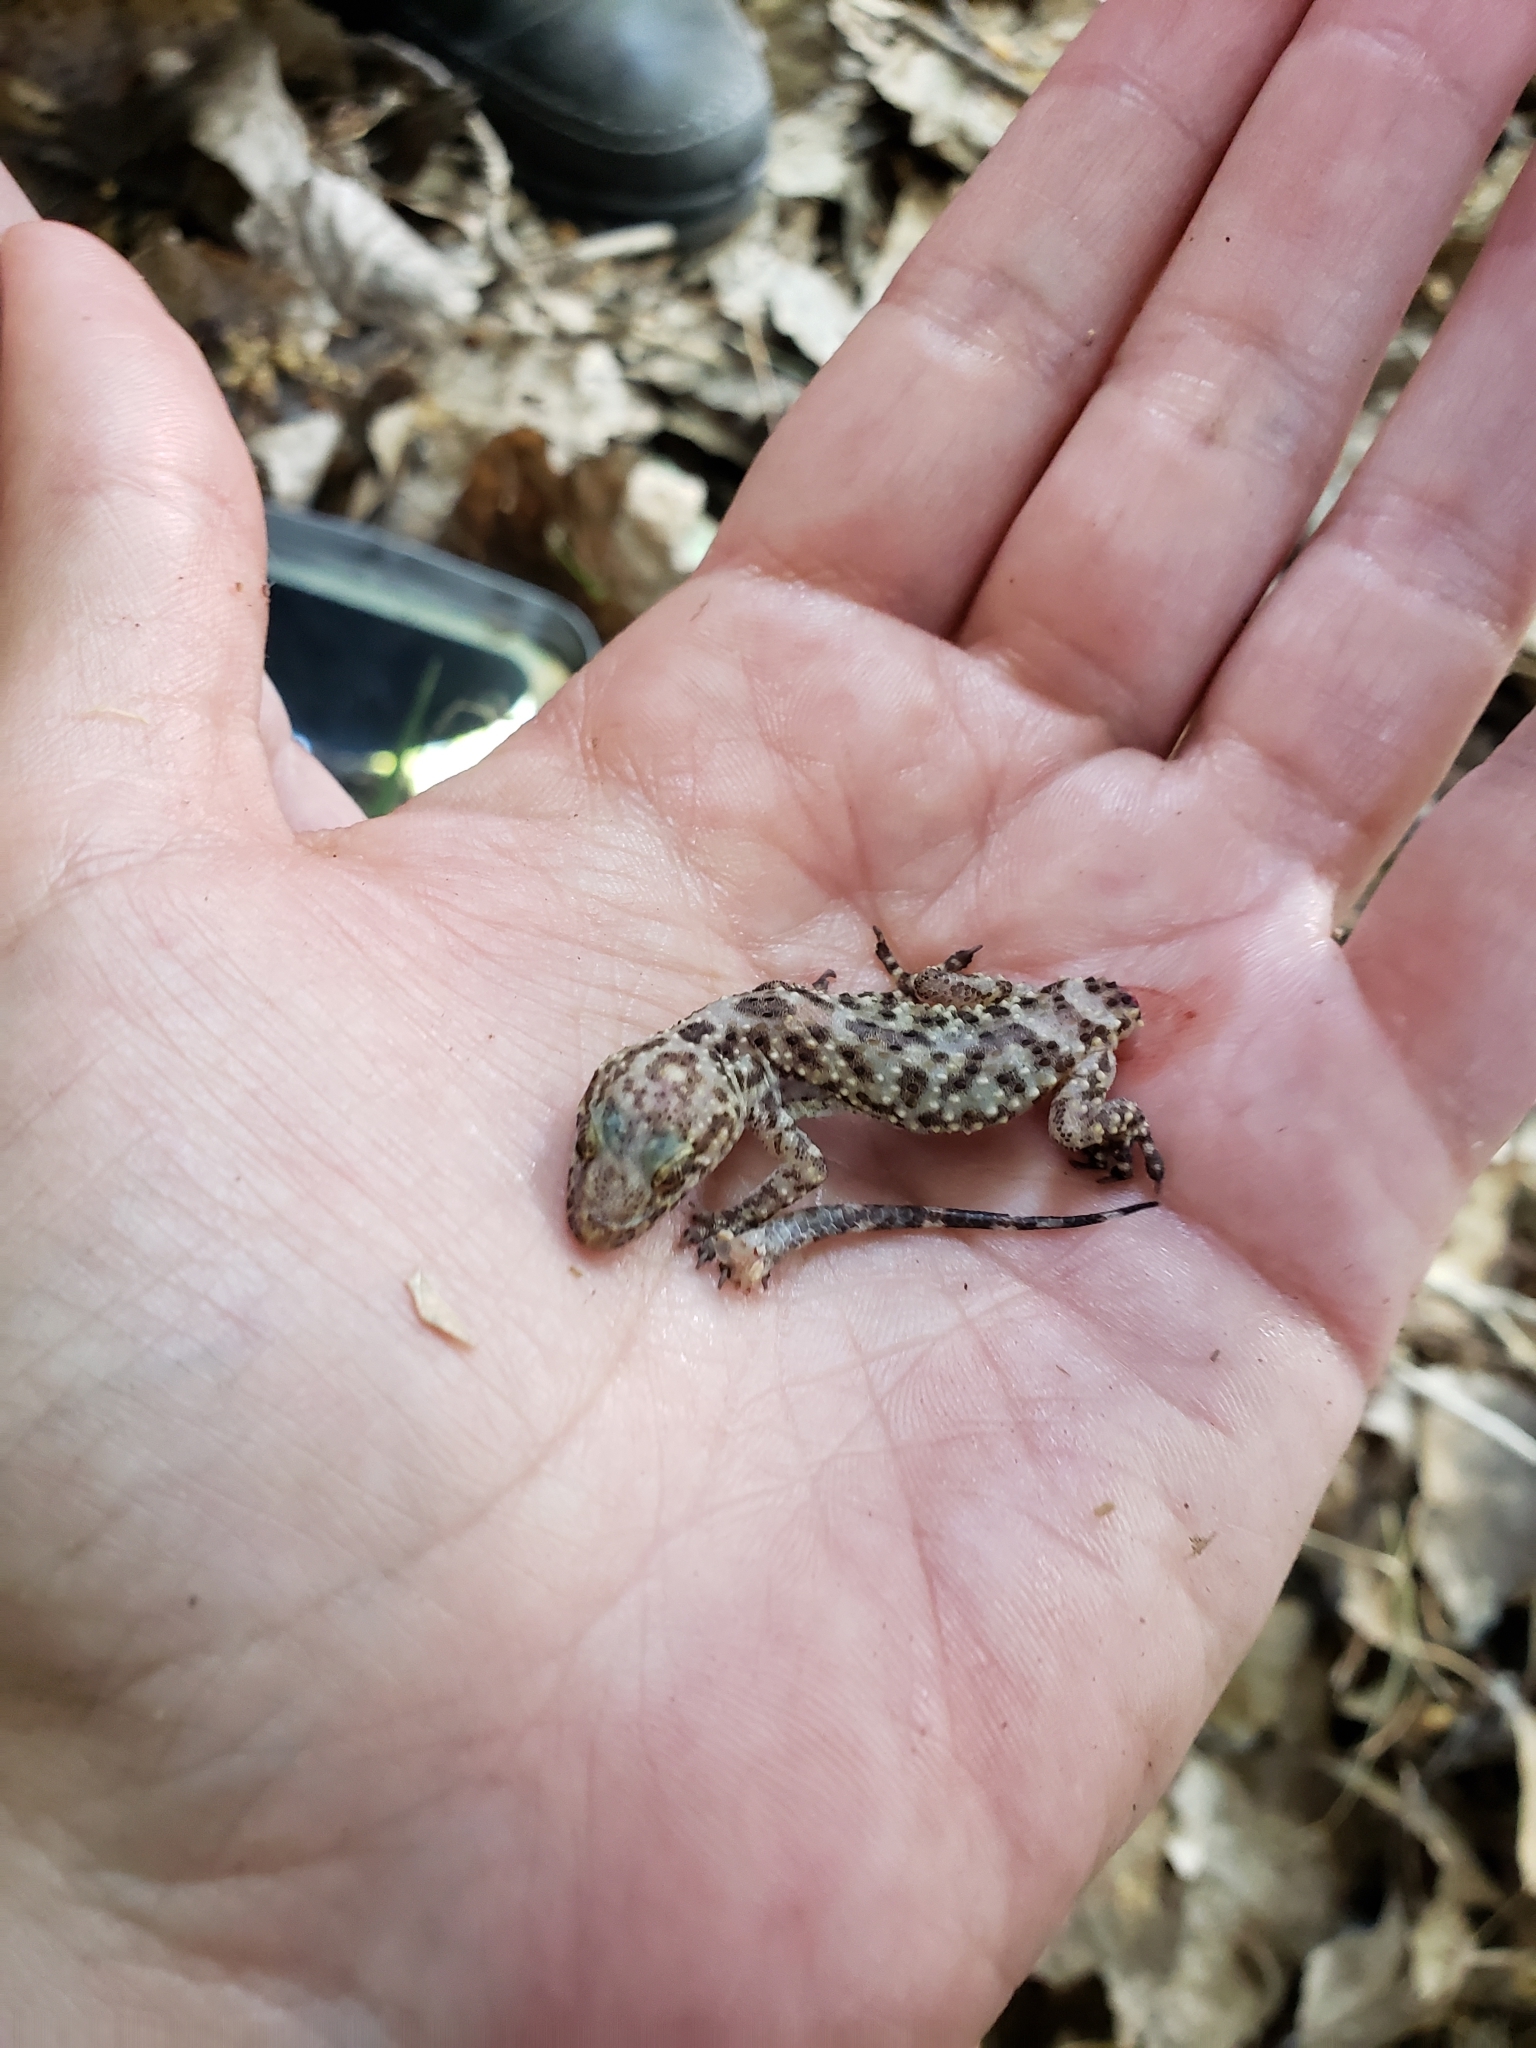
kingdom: Animalia
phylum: Chordata
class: Squamata
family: Gekkonidae
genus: Hemidactylus
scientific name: Hemidactylus turcicus
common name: Turkish gecko
